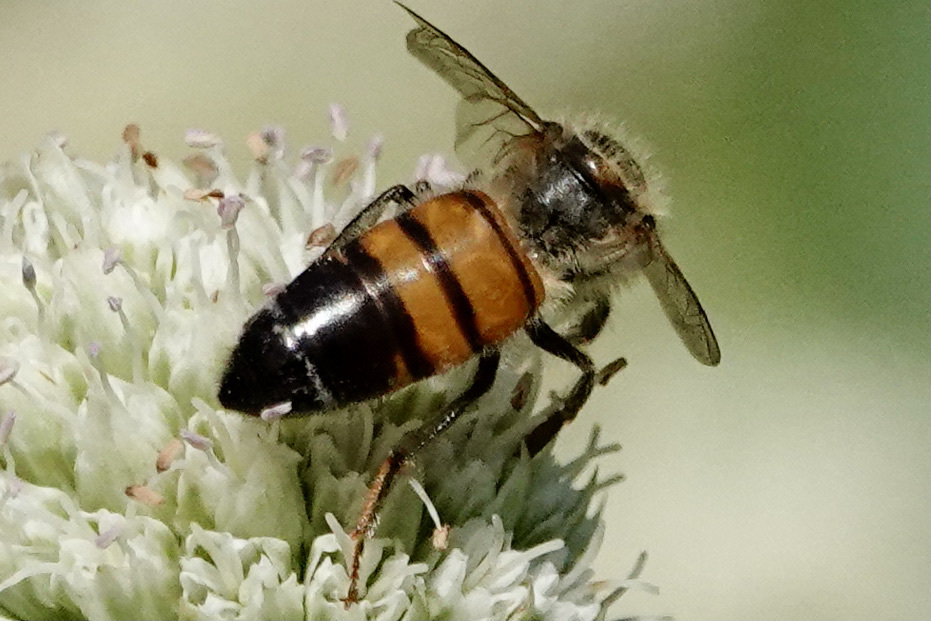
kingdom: Animalia
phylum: Arthropoda
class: Insecta
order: Hymenoptera
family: Apidae
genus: Apis
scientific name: Apis mellifera
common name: Honey bee
